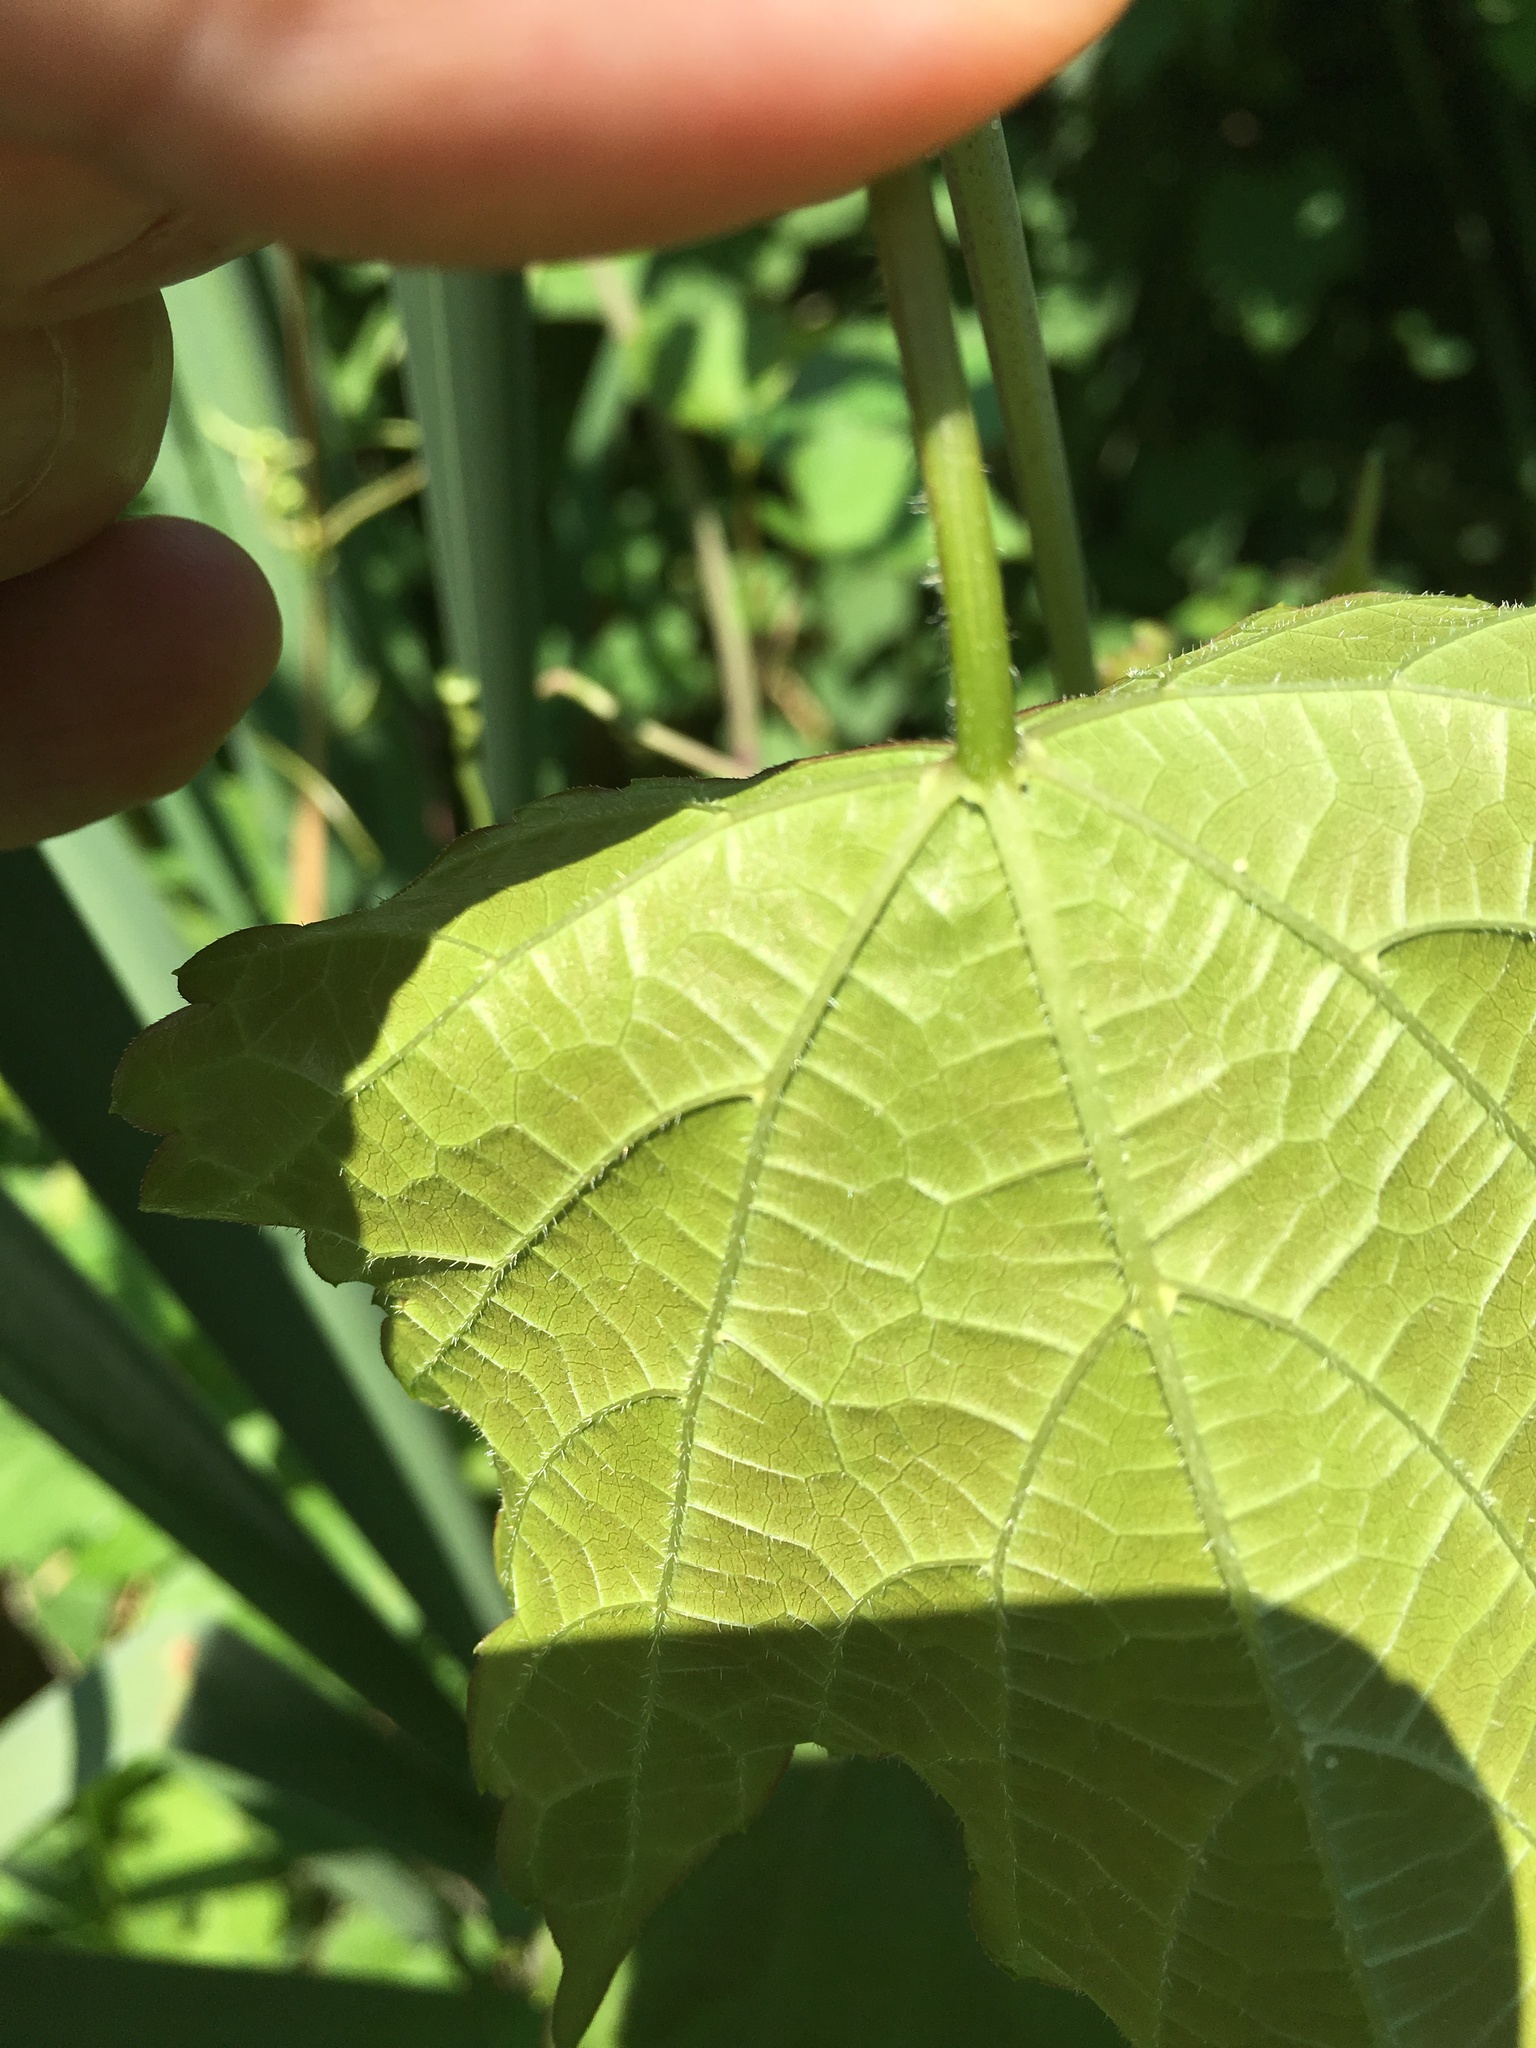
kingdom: Plantae
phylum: Tracheophyta
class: Magnoliopsida
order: Vitales
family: Vitaceae
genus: Ampelopsis
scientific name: Ampelopsis glandulosa
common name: Amur peppervine
